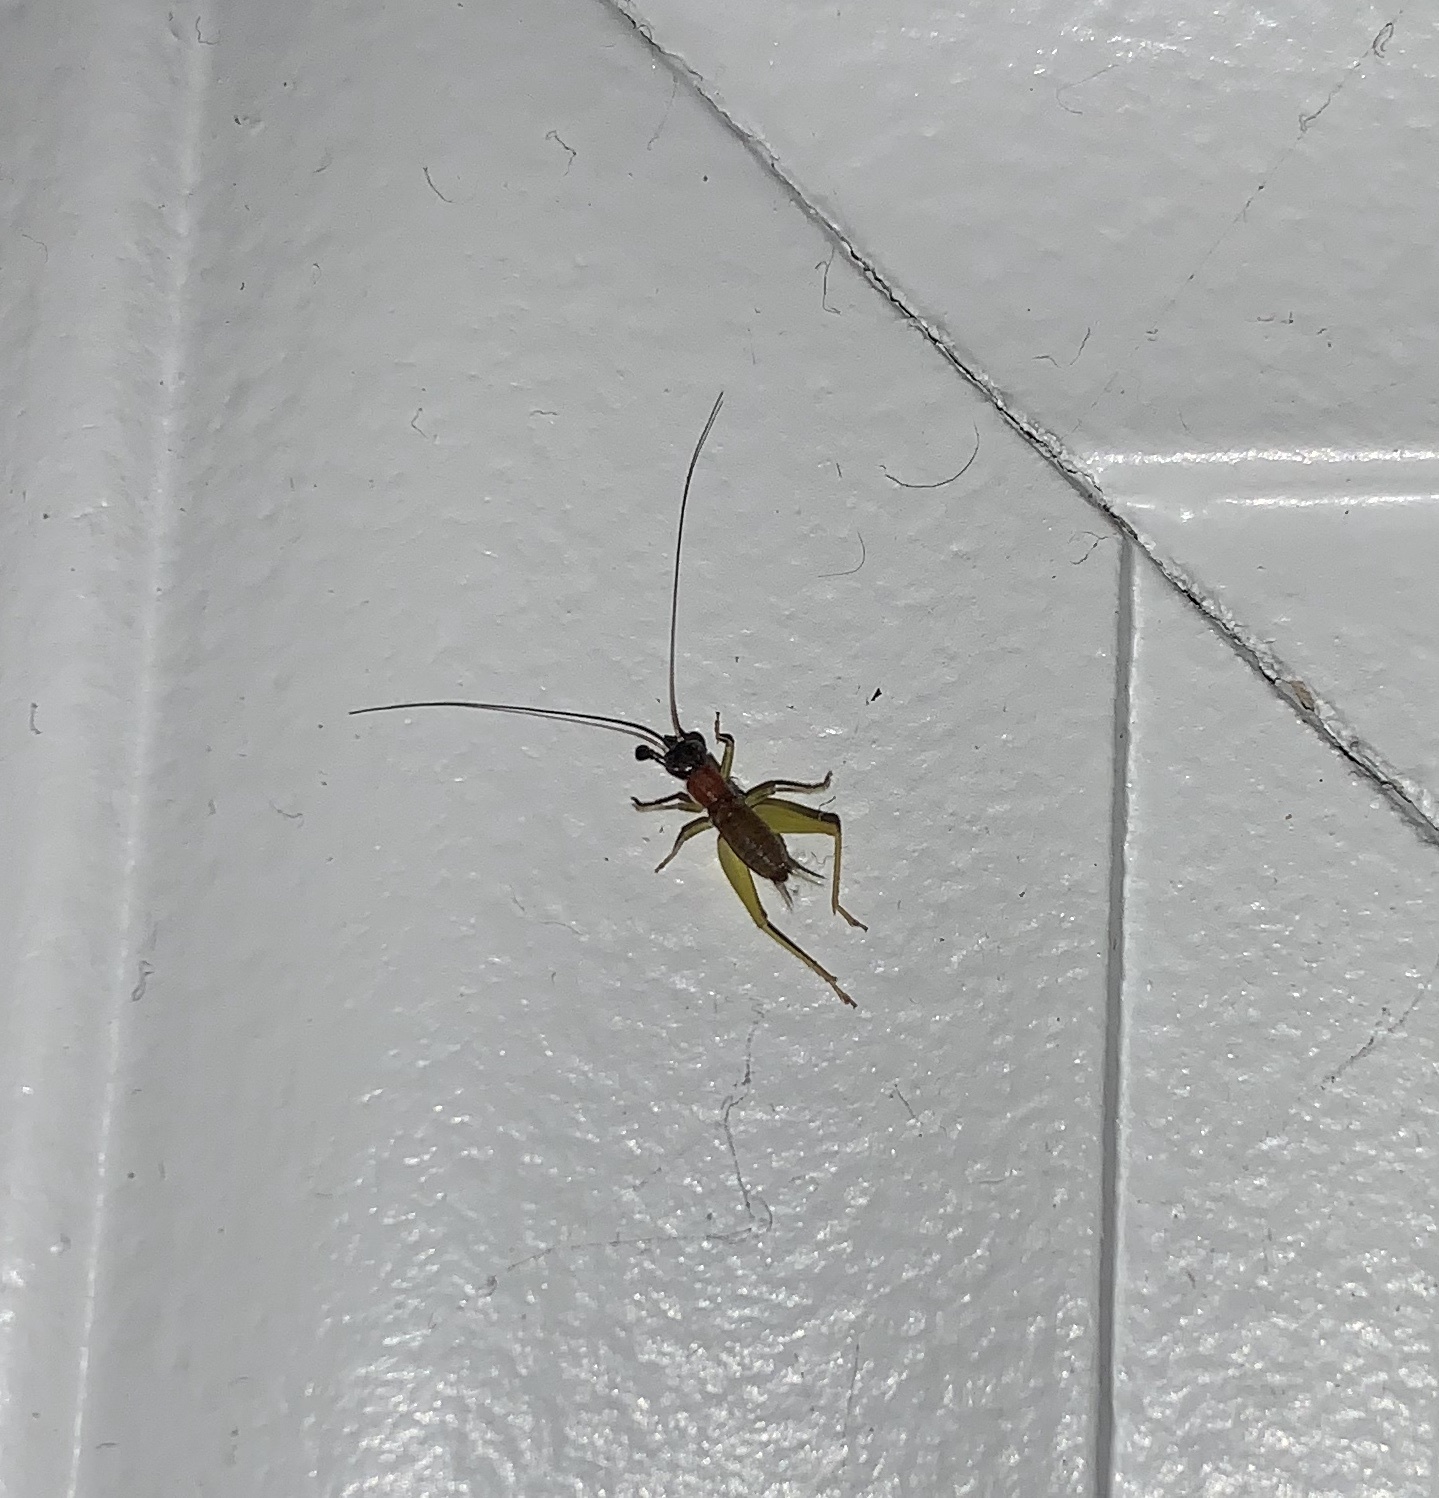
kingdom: Animalia
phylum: Arthropoda
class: Insecta
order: Orthoptera
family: Trigonidiidae
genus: Phyllopalpus
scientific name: Phyllopalpus pulchellus
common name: Handsome trig
